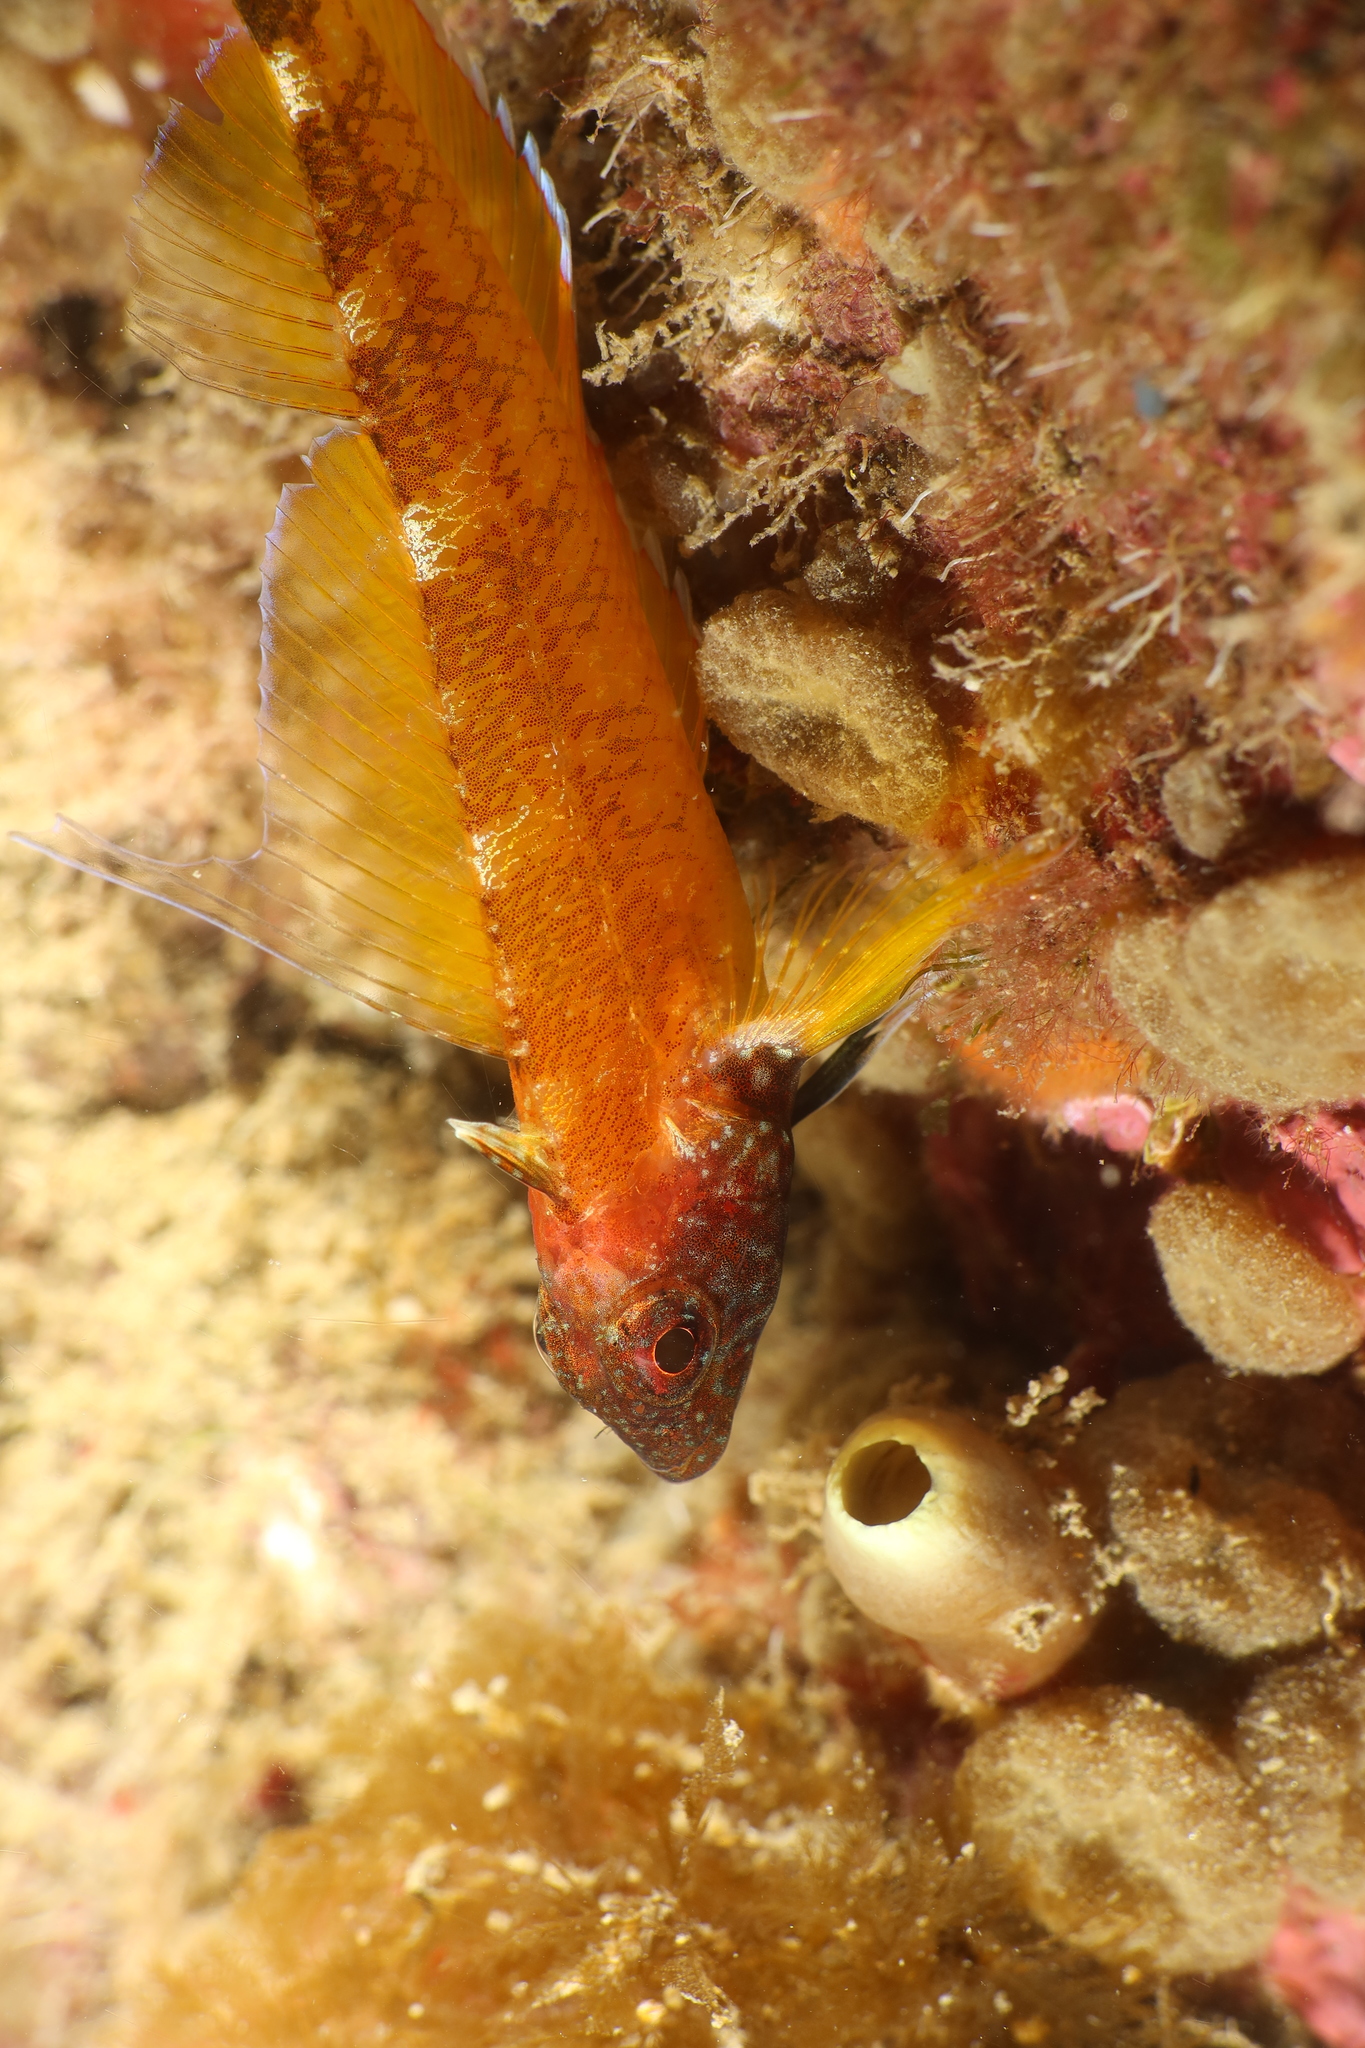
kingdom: Animalia
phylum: Chordata
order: Perciformes
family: Tripterygiidae
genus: Tripterygion
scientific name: Tripterygion delaisi
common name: Black-face blenny
